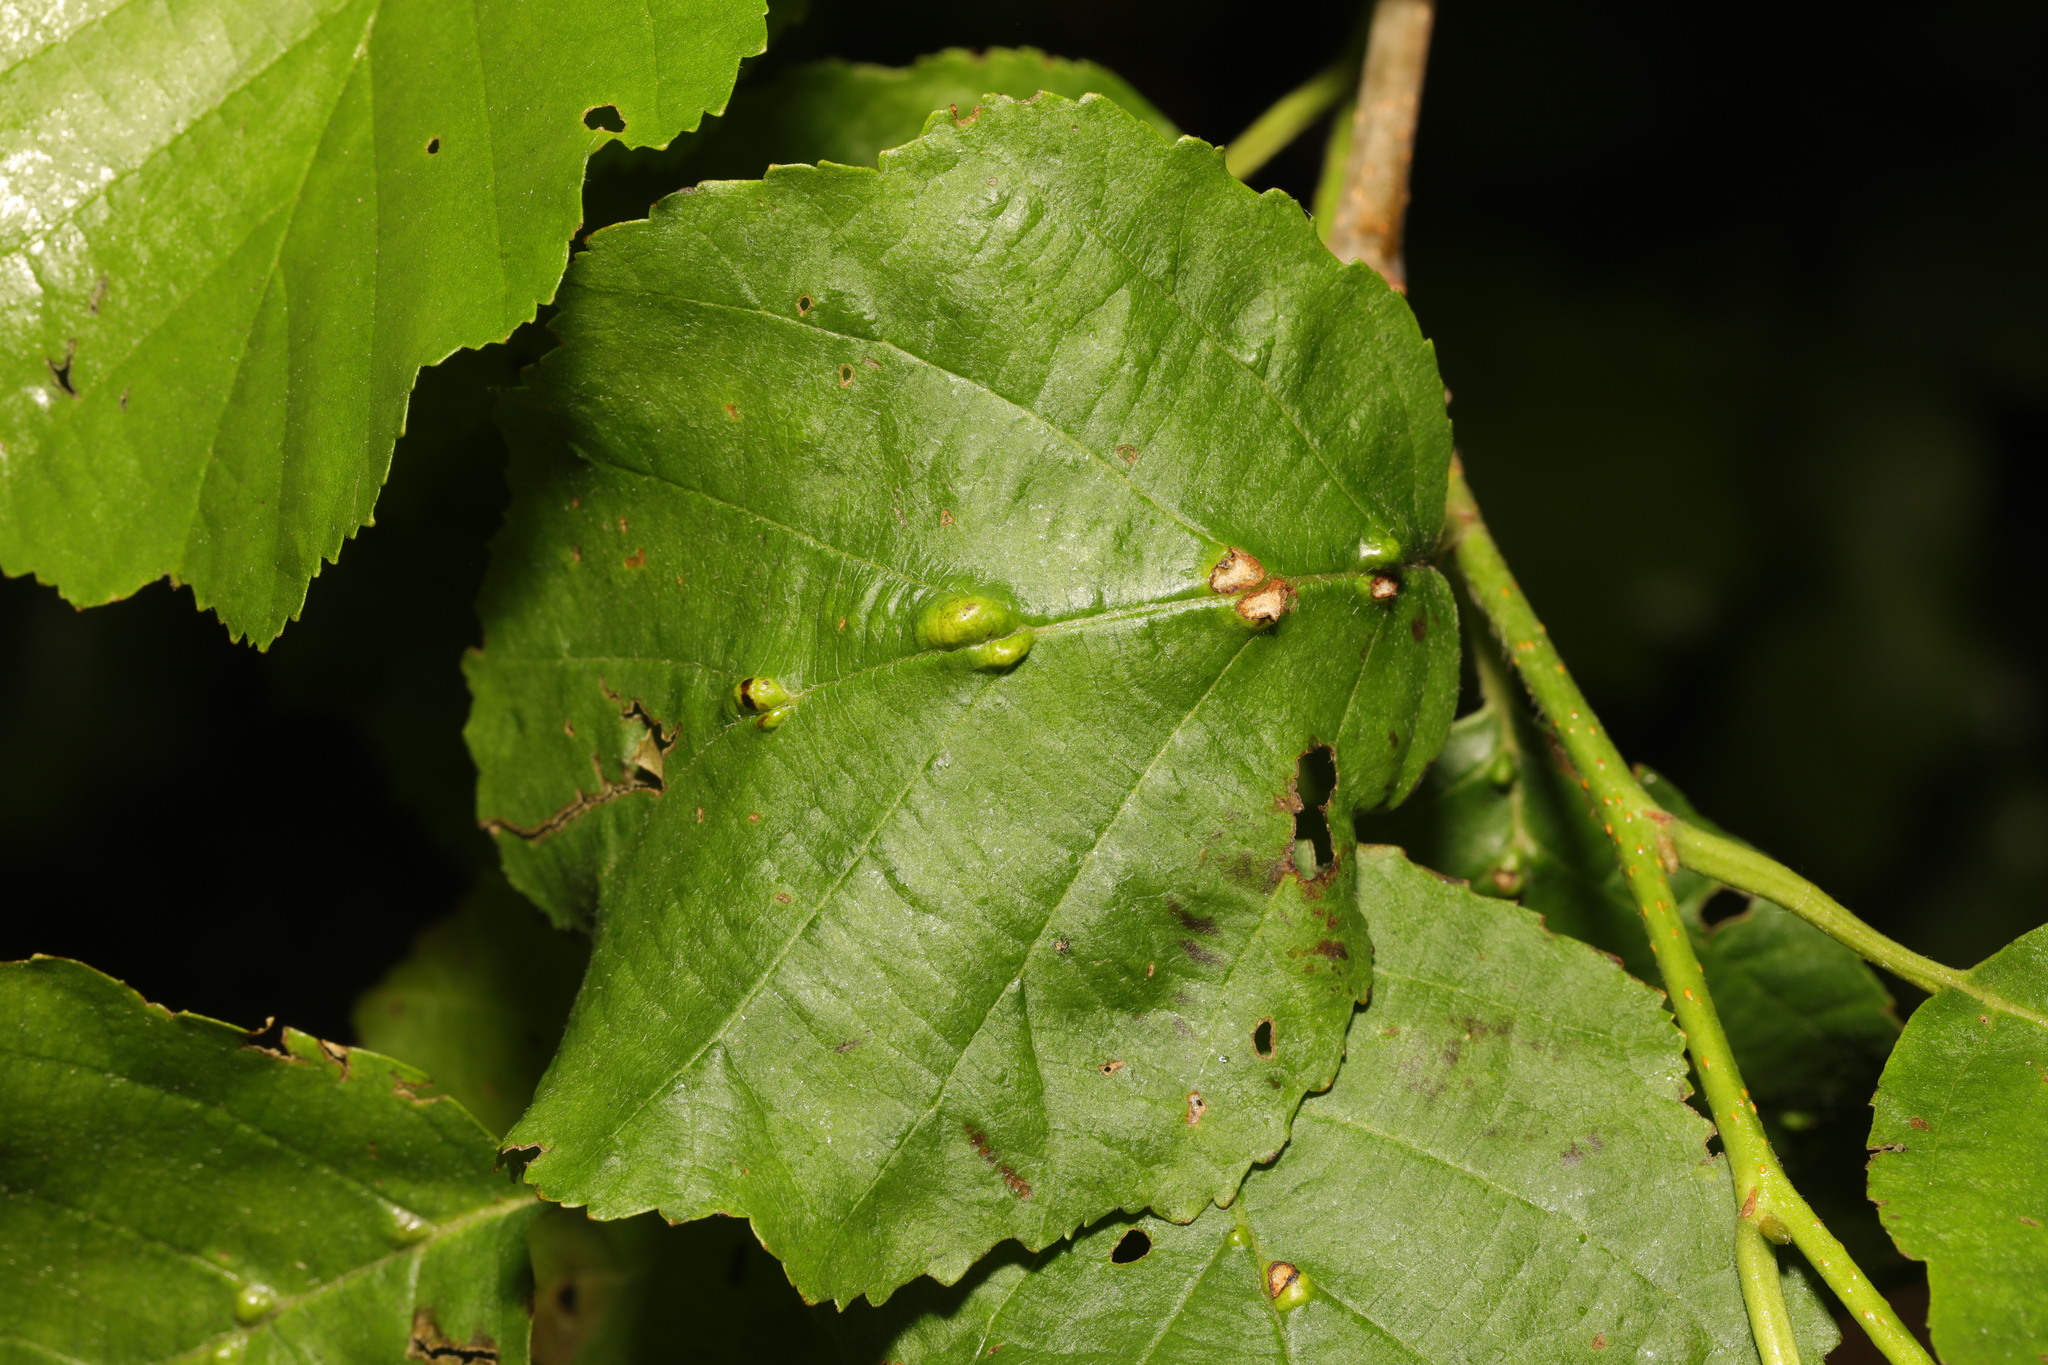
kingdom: Animalia
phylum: Arthropoda
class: Arachnida
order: Trombidiformes
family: Eriophyidae
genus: Eriophyes
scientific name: Eriophyes inangulis
